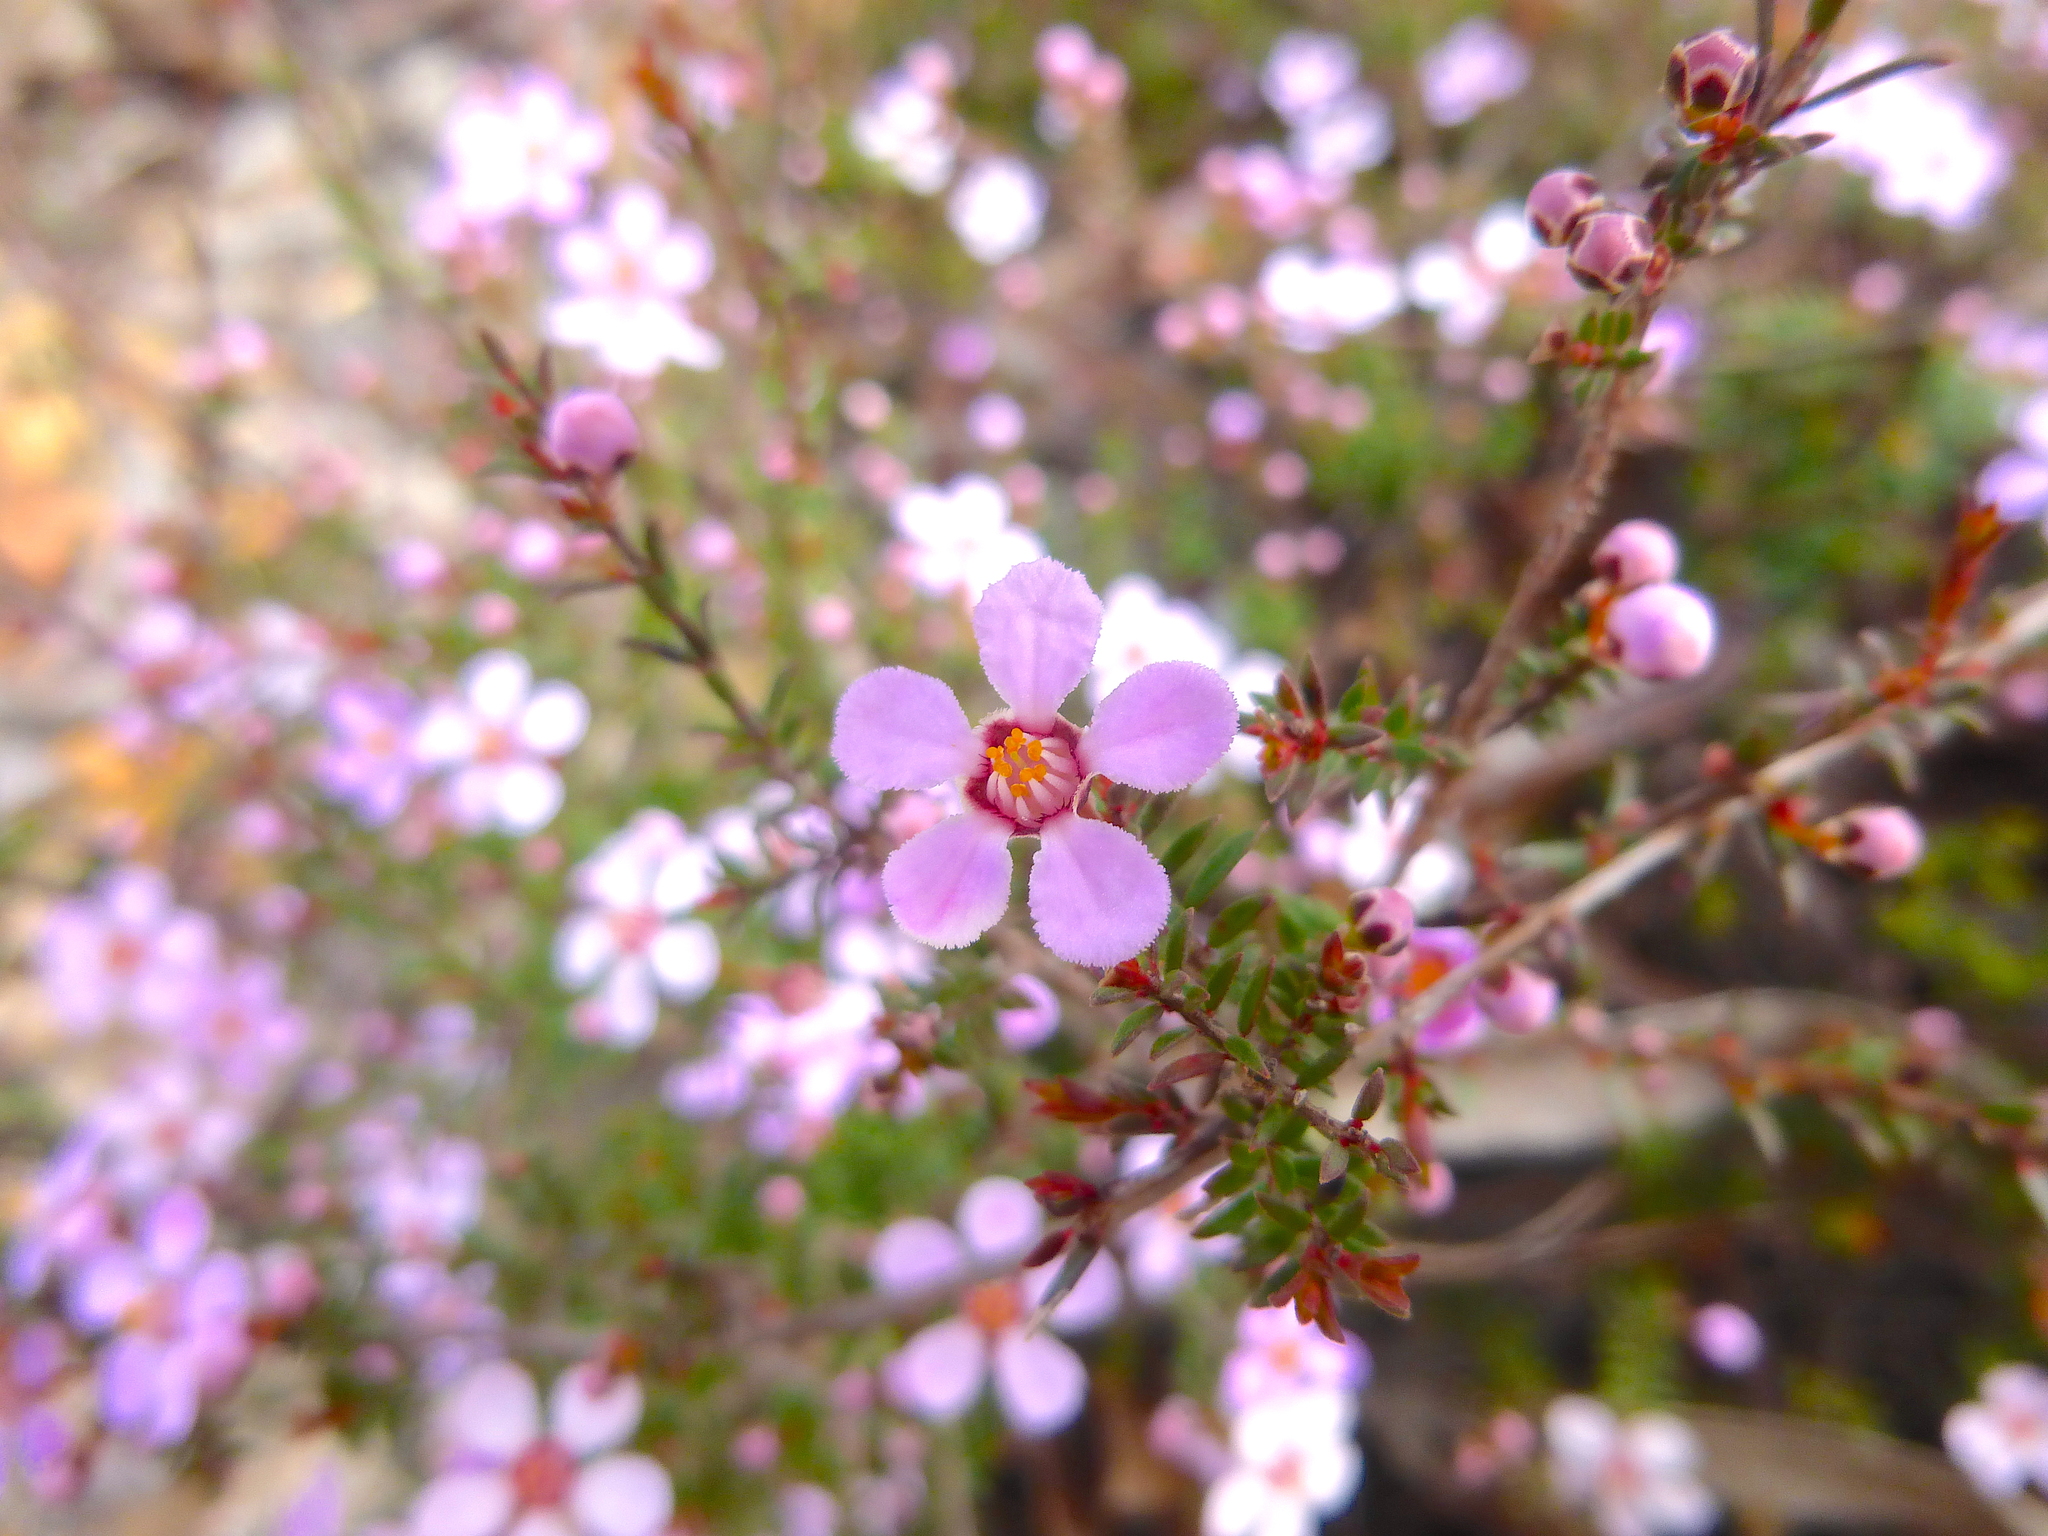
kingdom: Plantae
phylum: Tracheophyta
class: Magnoliopsida
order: Myrtales
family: Myrtaceae
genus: Euryomyrtus
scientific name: Euryomyrtus ramosissima
